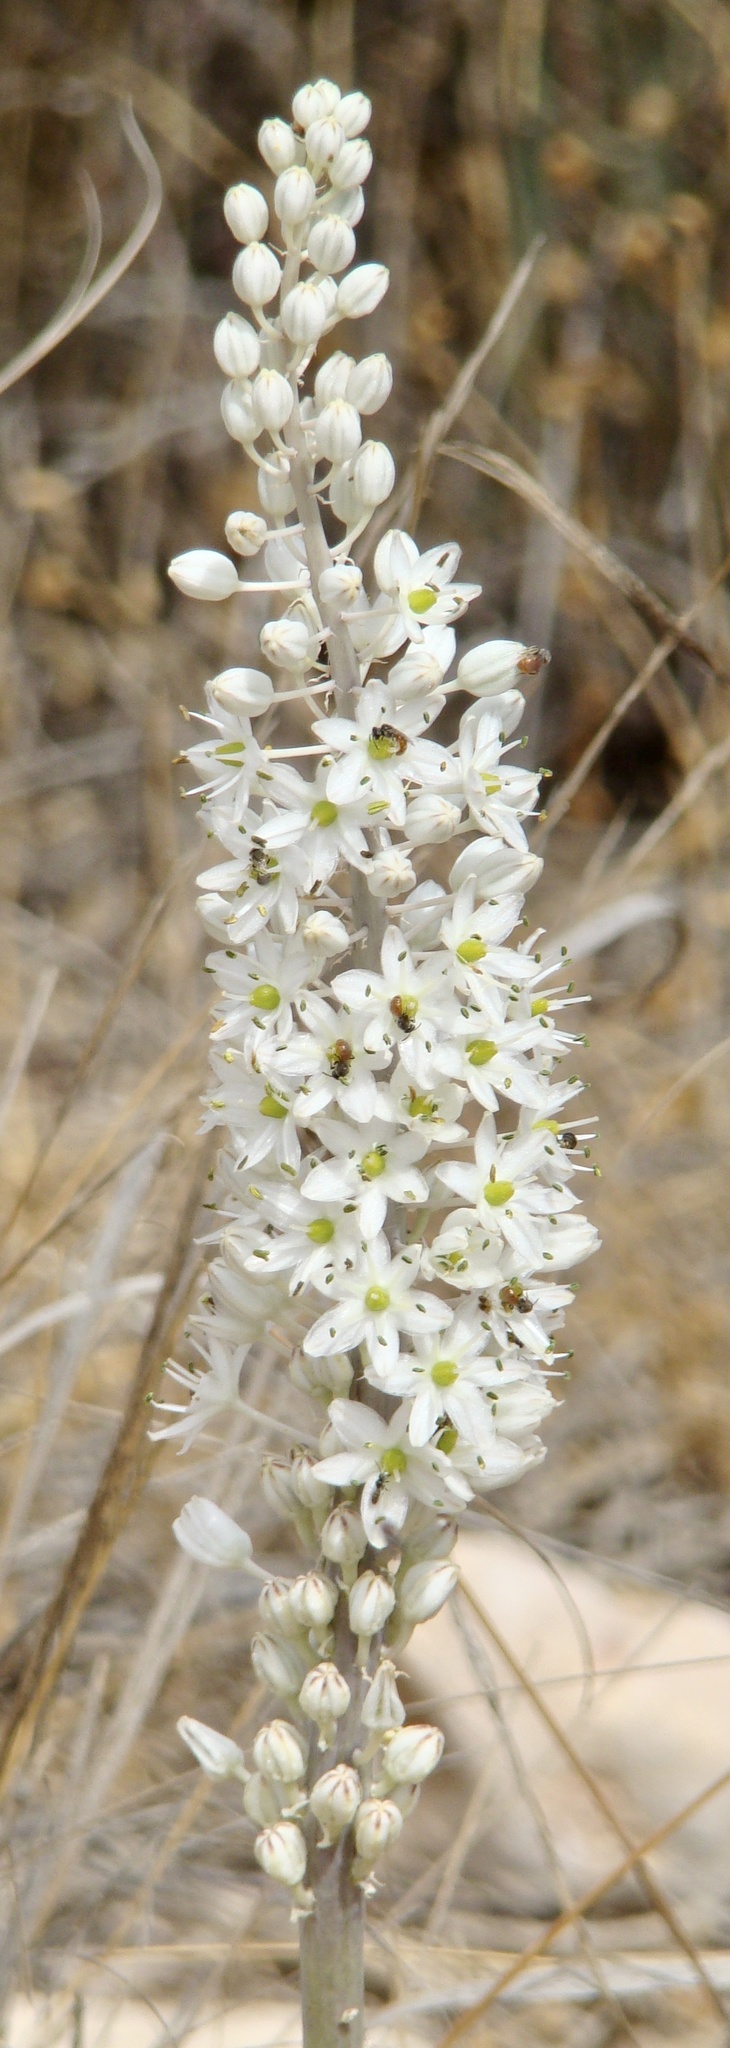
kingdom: Plantae
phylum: Tracheophyta
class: Liliopsida
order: Asparagales
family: Asparagaceae
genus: Drimia
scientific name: Drimia aphylla
